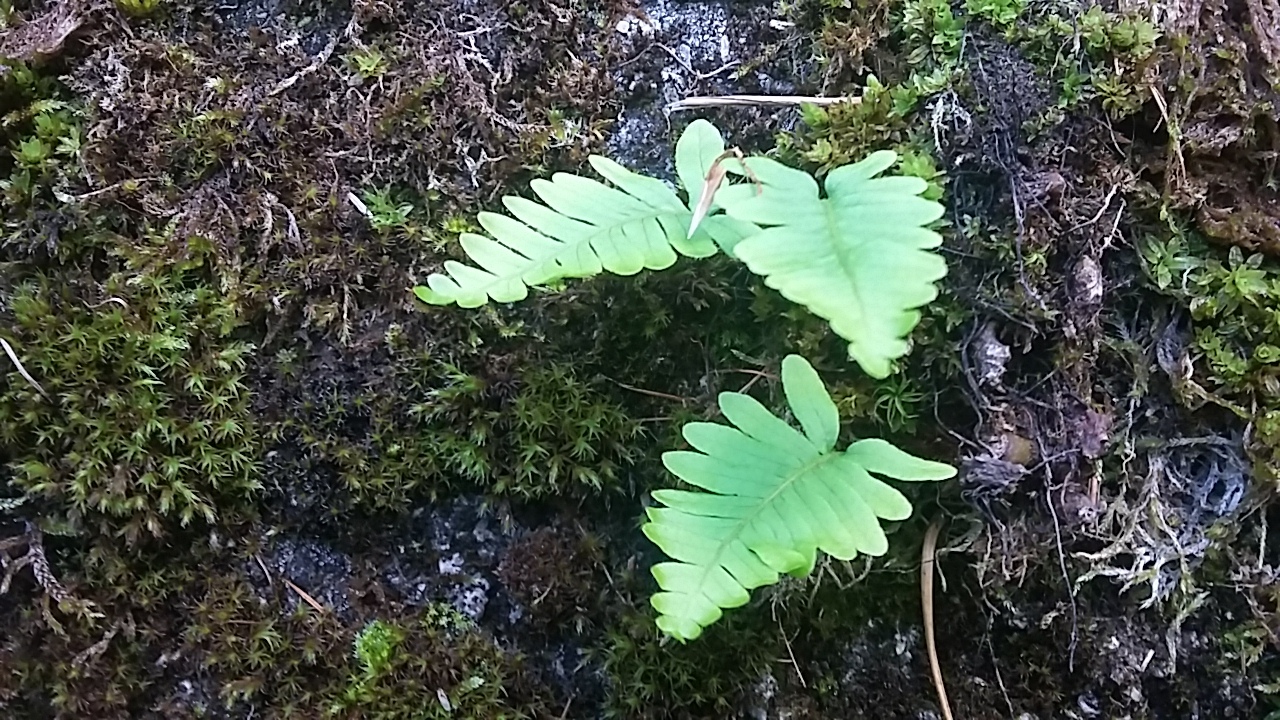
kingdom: Plantae
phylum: Tracheophyta
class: Polypodiopsida
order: Polypodiales
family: Polypodiaceae
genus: Polypodium
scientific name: Polypodium vulgare
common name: Common polypody
